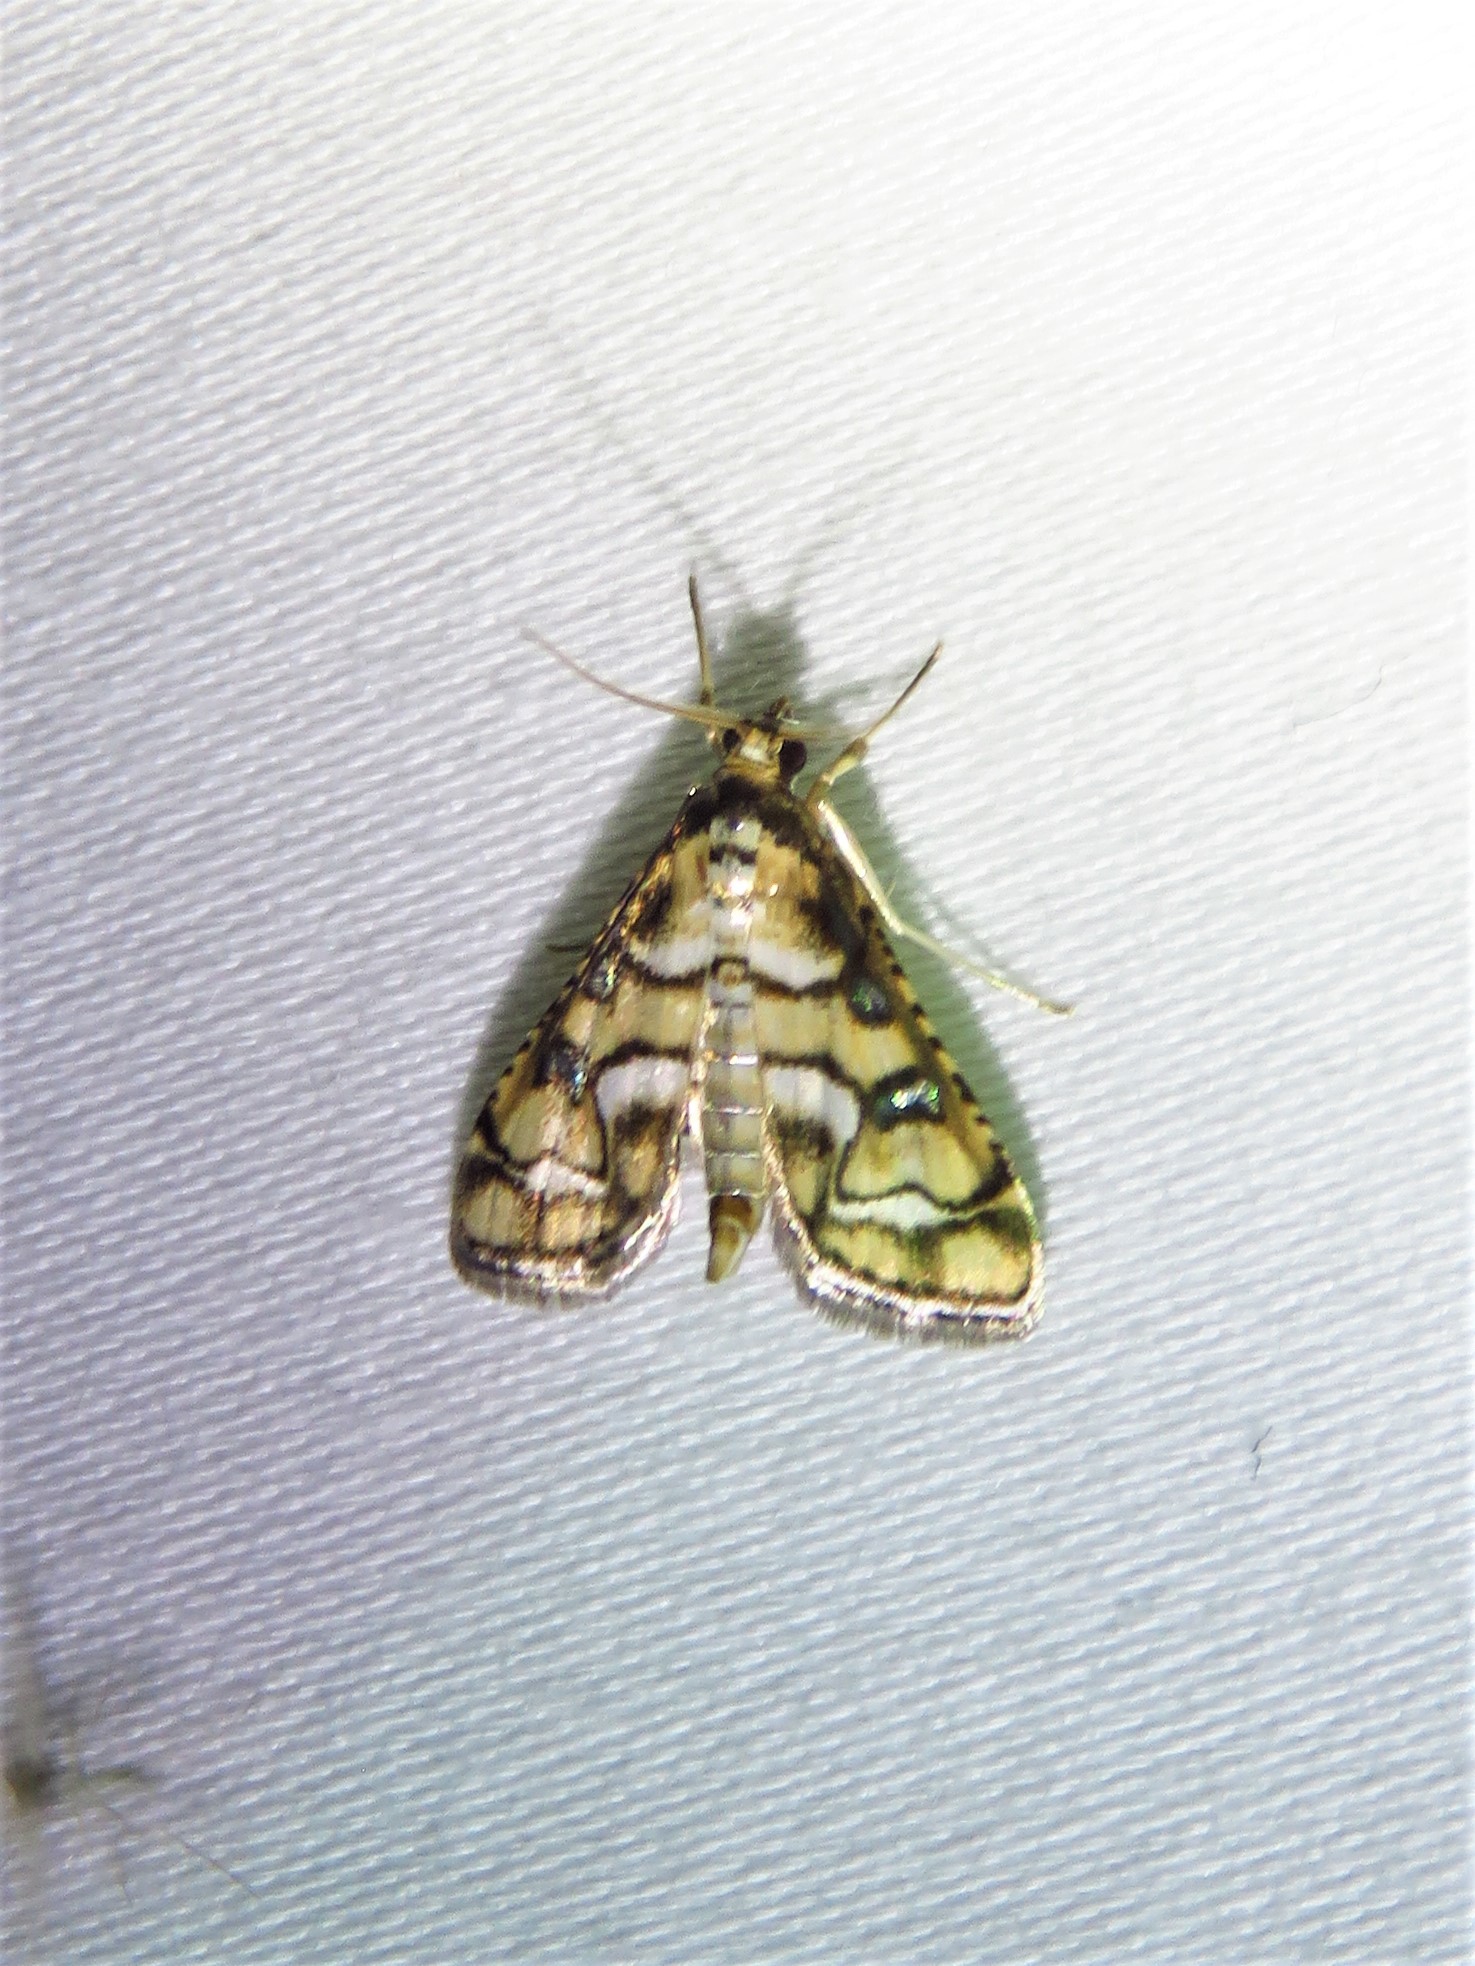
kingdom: Animalia
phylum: Arthropoda
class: Insecta
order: Lepidoptera
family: Crambidae
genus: Hileithia
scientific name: Hileithia magualis
